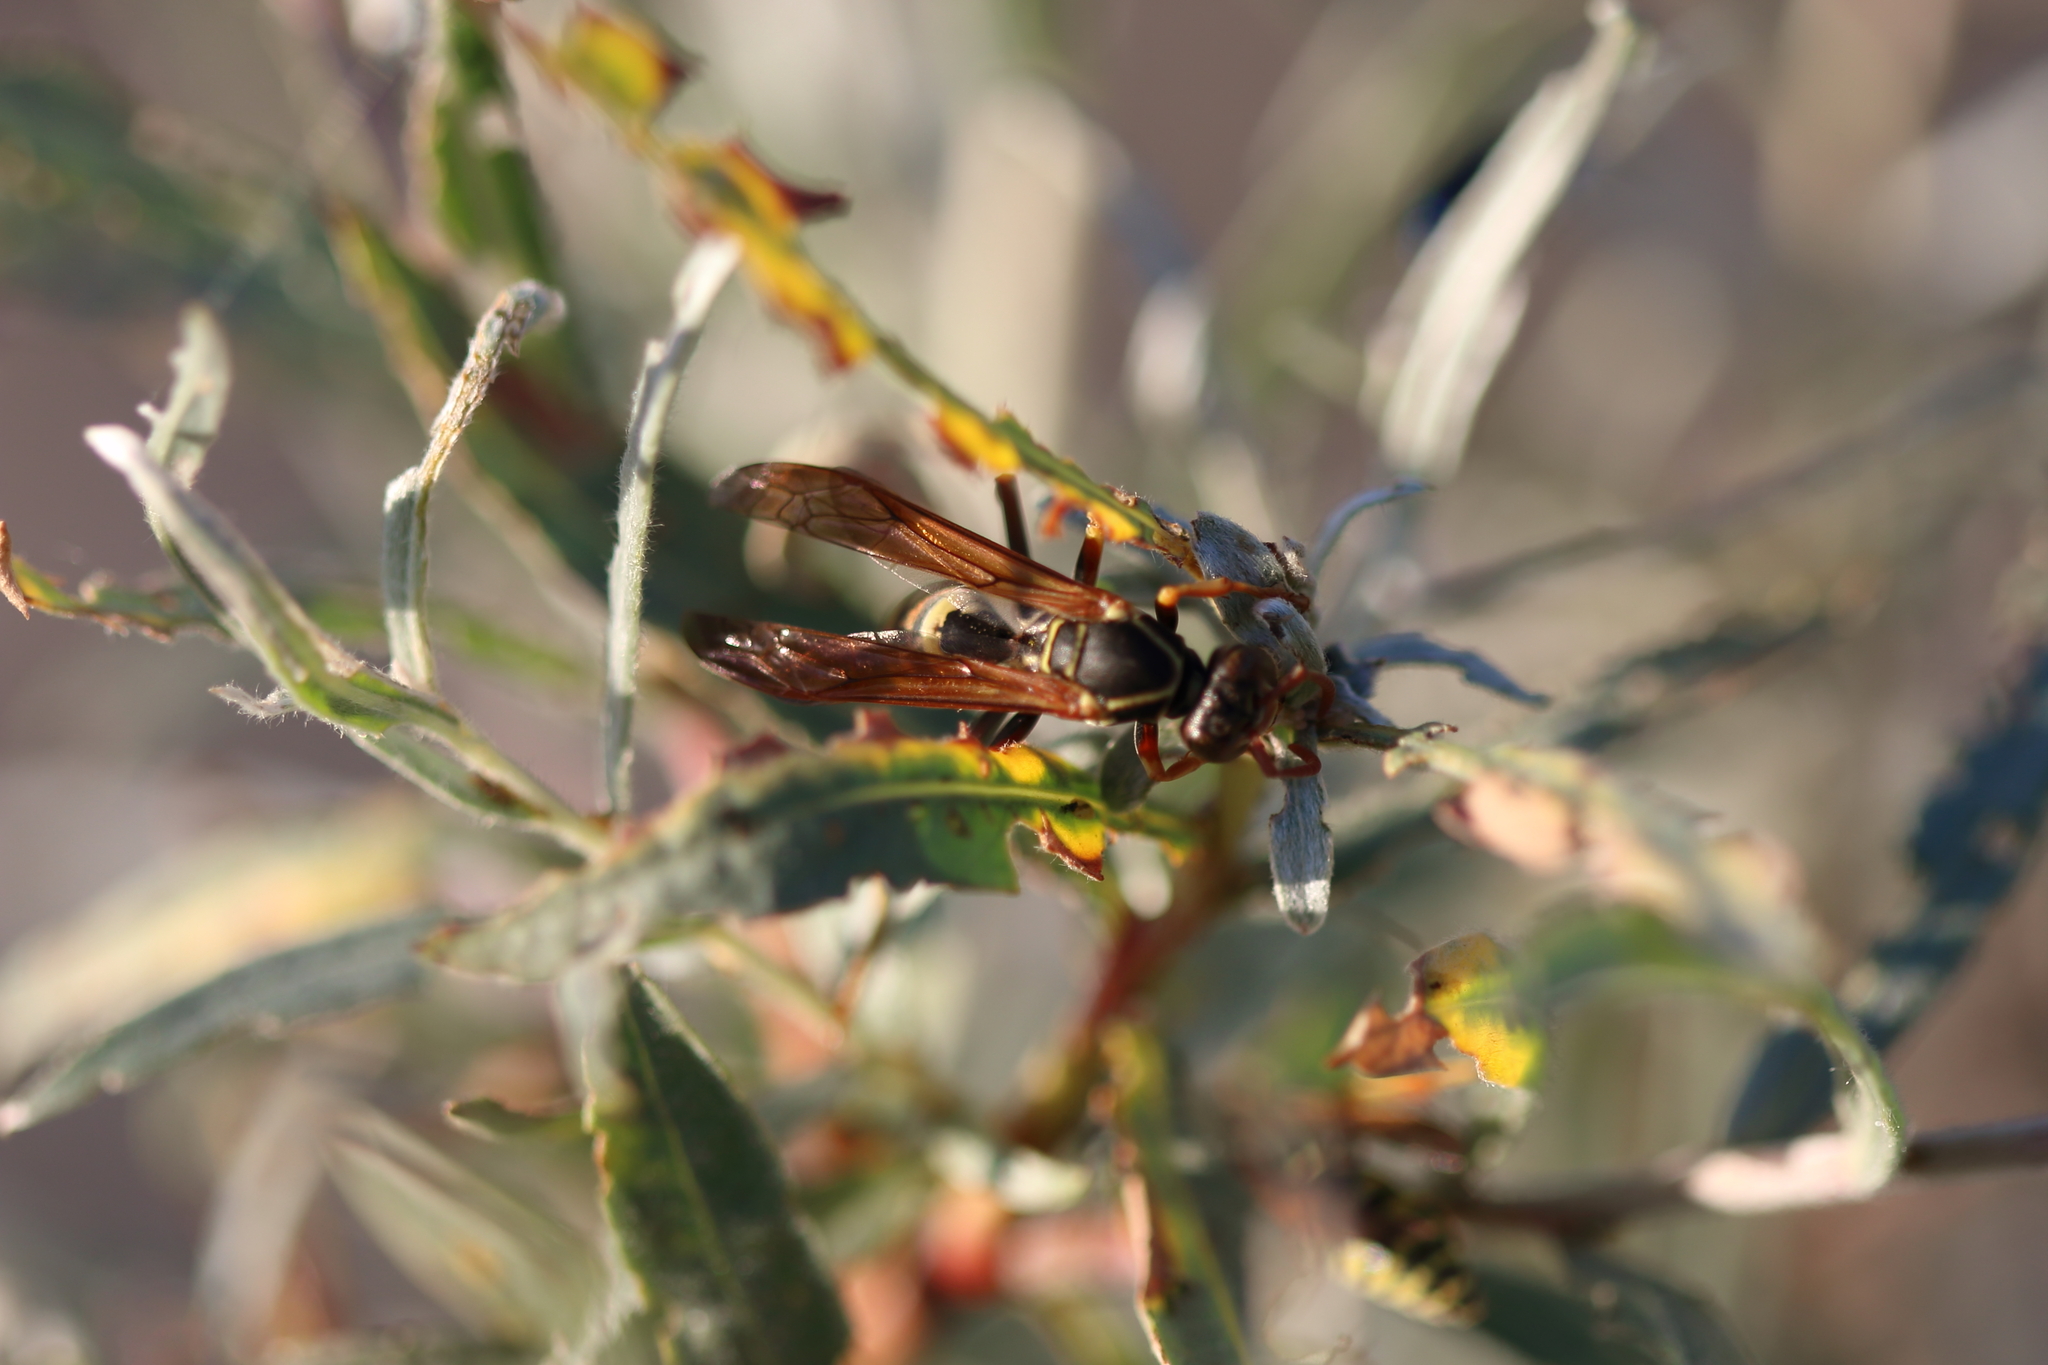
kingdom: Animalia
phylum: Arthropoda
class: Insecta
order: Hymenoptera
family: Eumenidae
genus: Polistes
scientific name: Polistes aurifer
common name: Paper wasp
